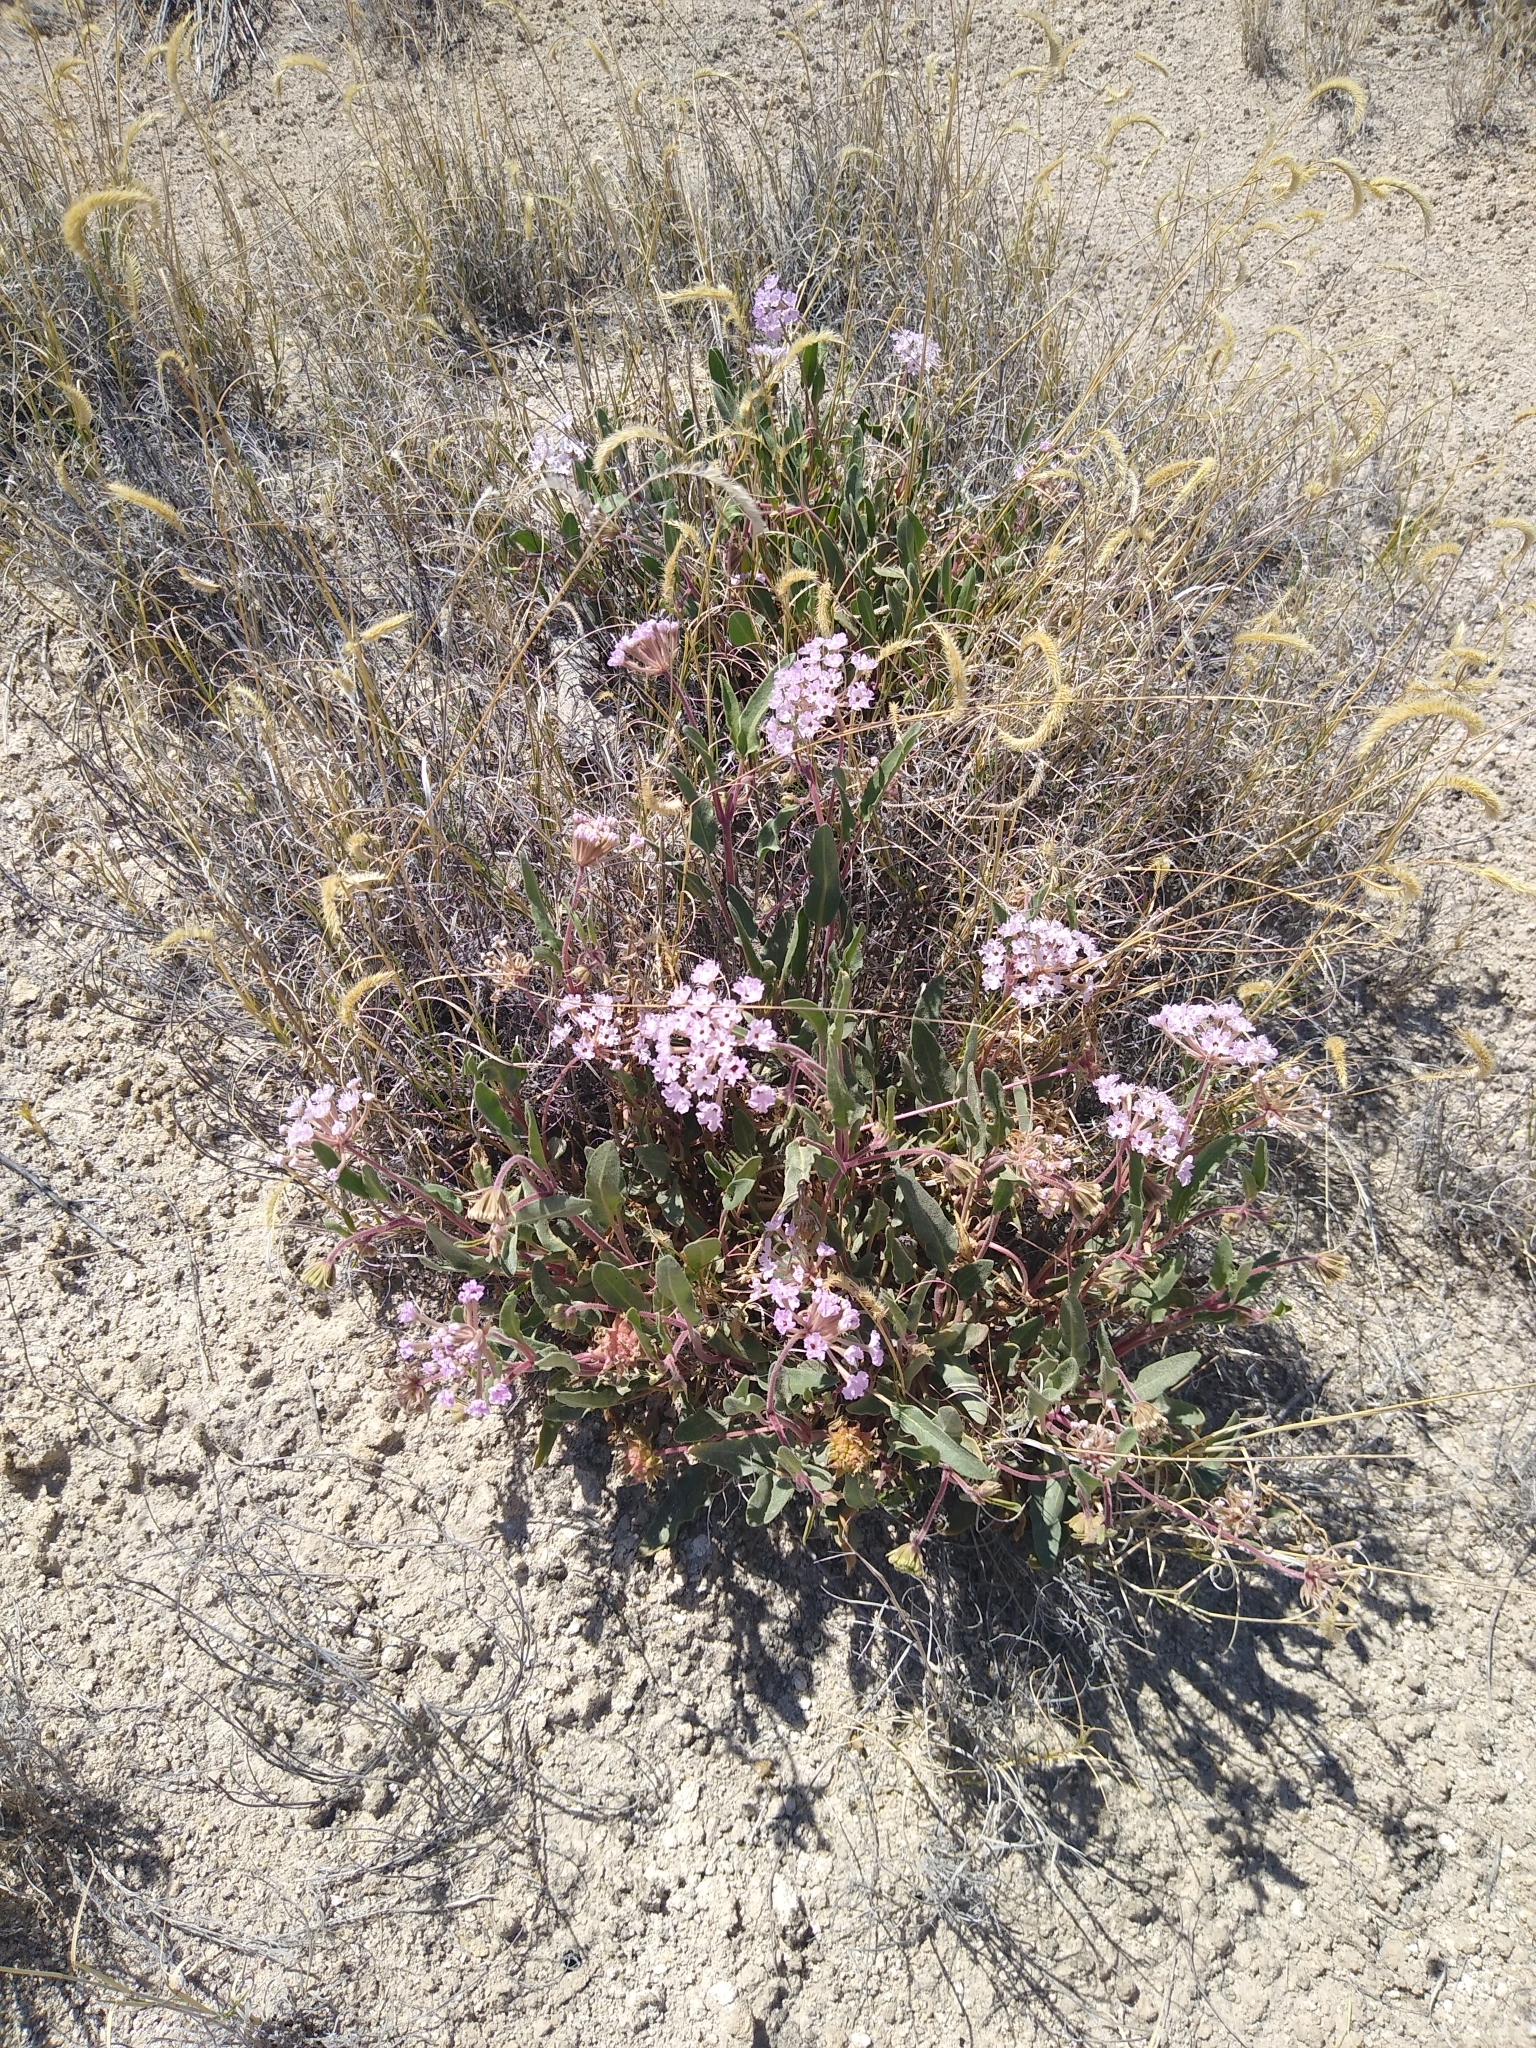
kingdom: Plantae
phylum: Tracheophyta
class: Magnoliopsida
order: Caryophyllales
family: Nyctaginaceae
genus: Abronia
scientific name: Abronia angustifolia
